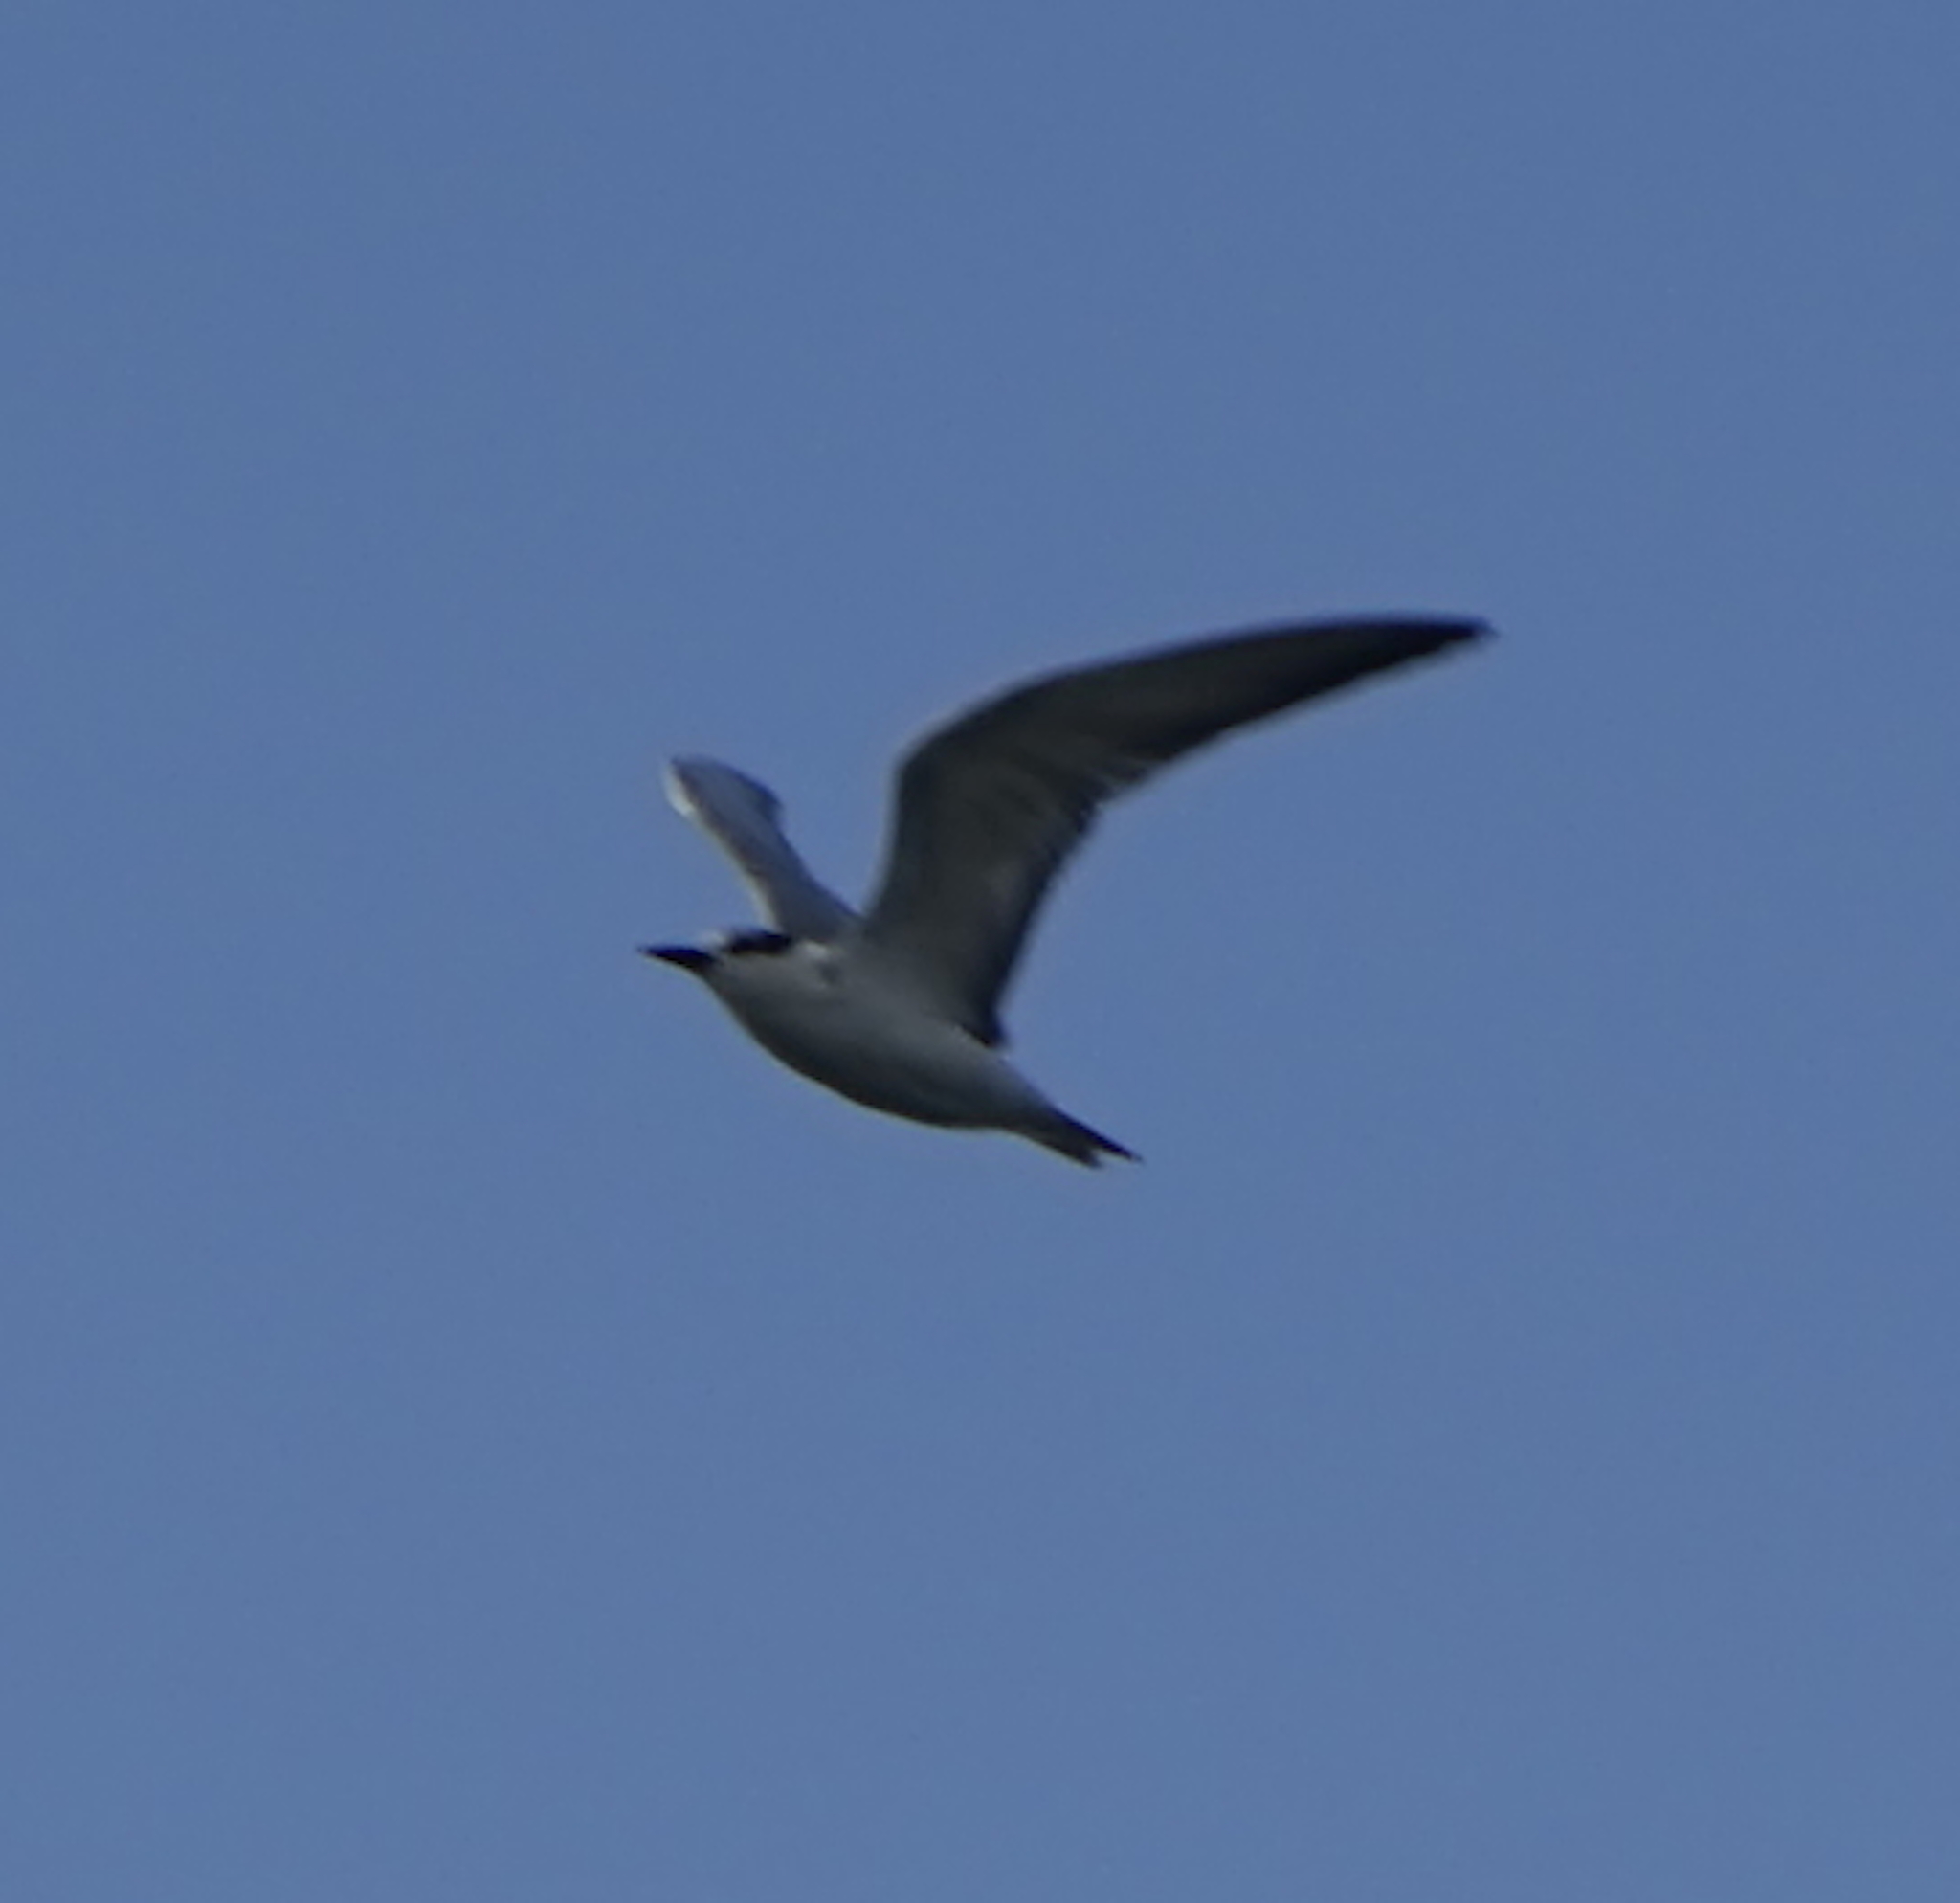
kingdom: Animalia
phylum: Chordata
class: Aves
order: Charadriiformes
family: Laridae
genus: Chlidonias
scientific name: Chlidonias hybrida
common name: Whiskered tern
